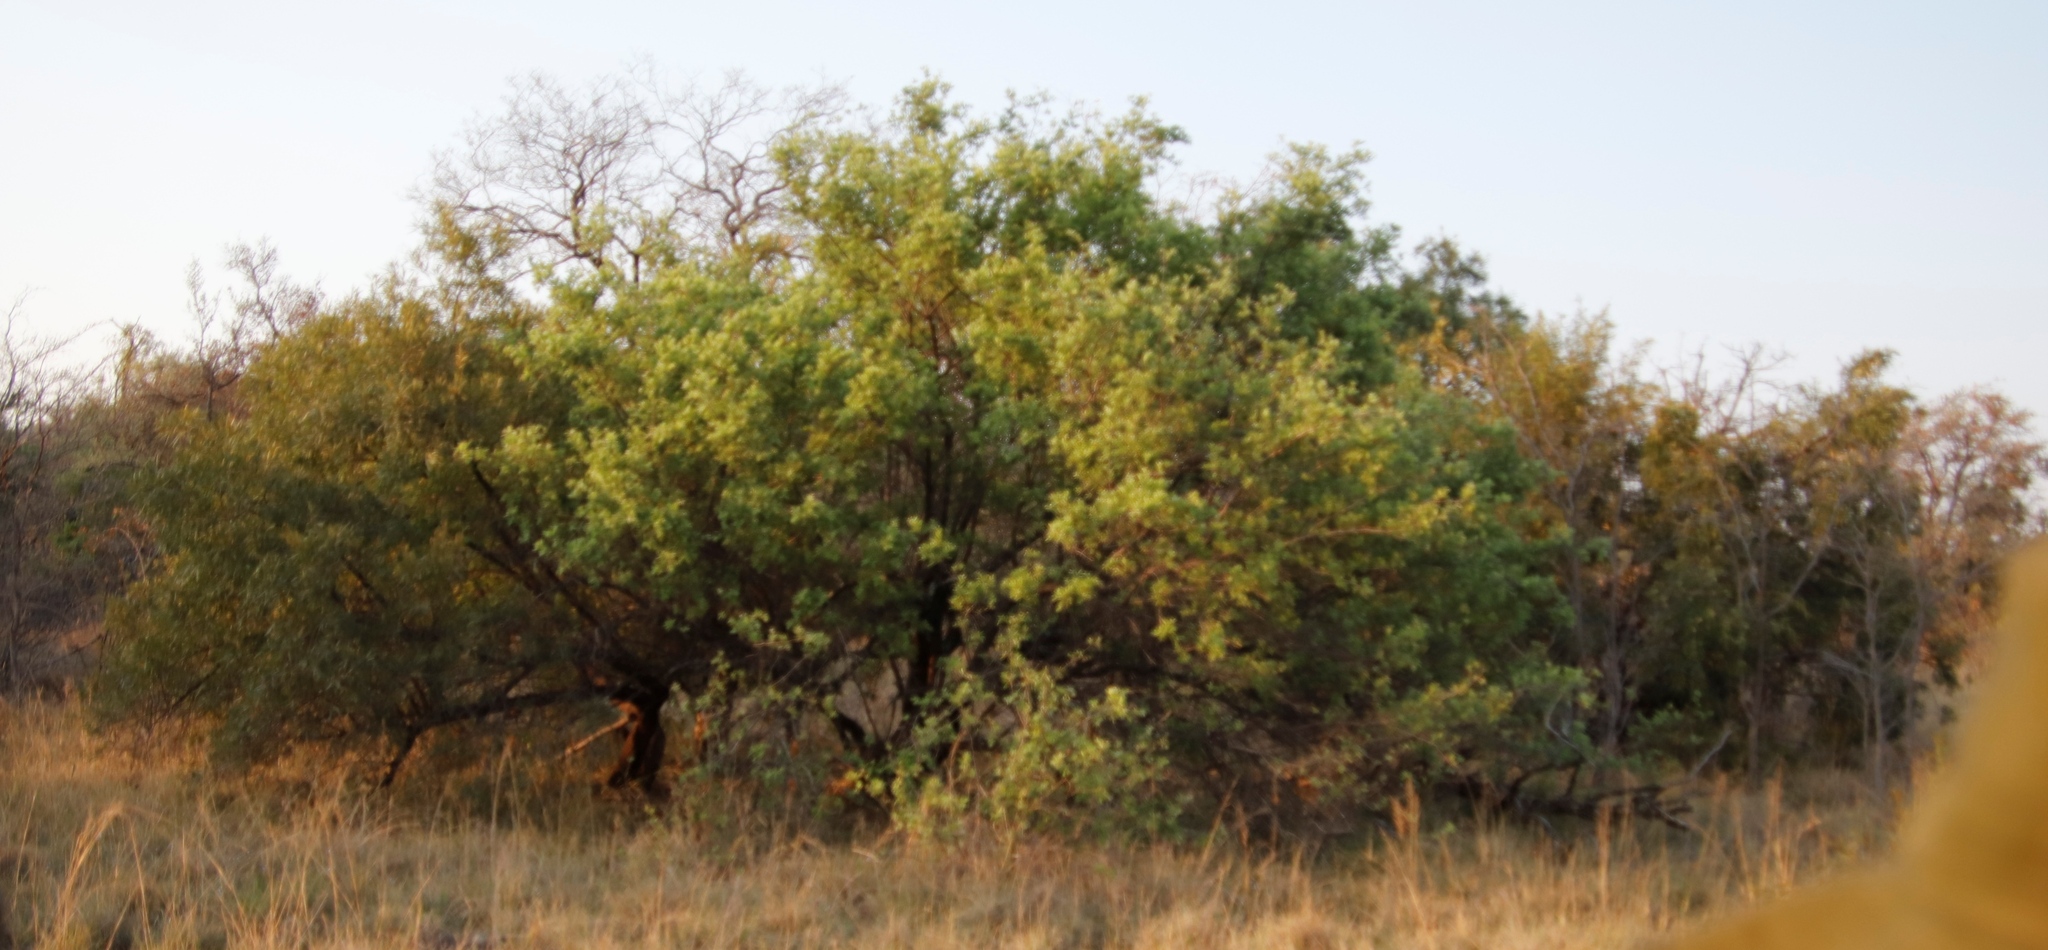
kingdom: Plantae
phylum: Tracheophyta
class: Magnoliopsida
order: Sapindales
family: Anacardiaceae
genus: Searsia
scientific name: Searsia pyroides
